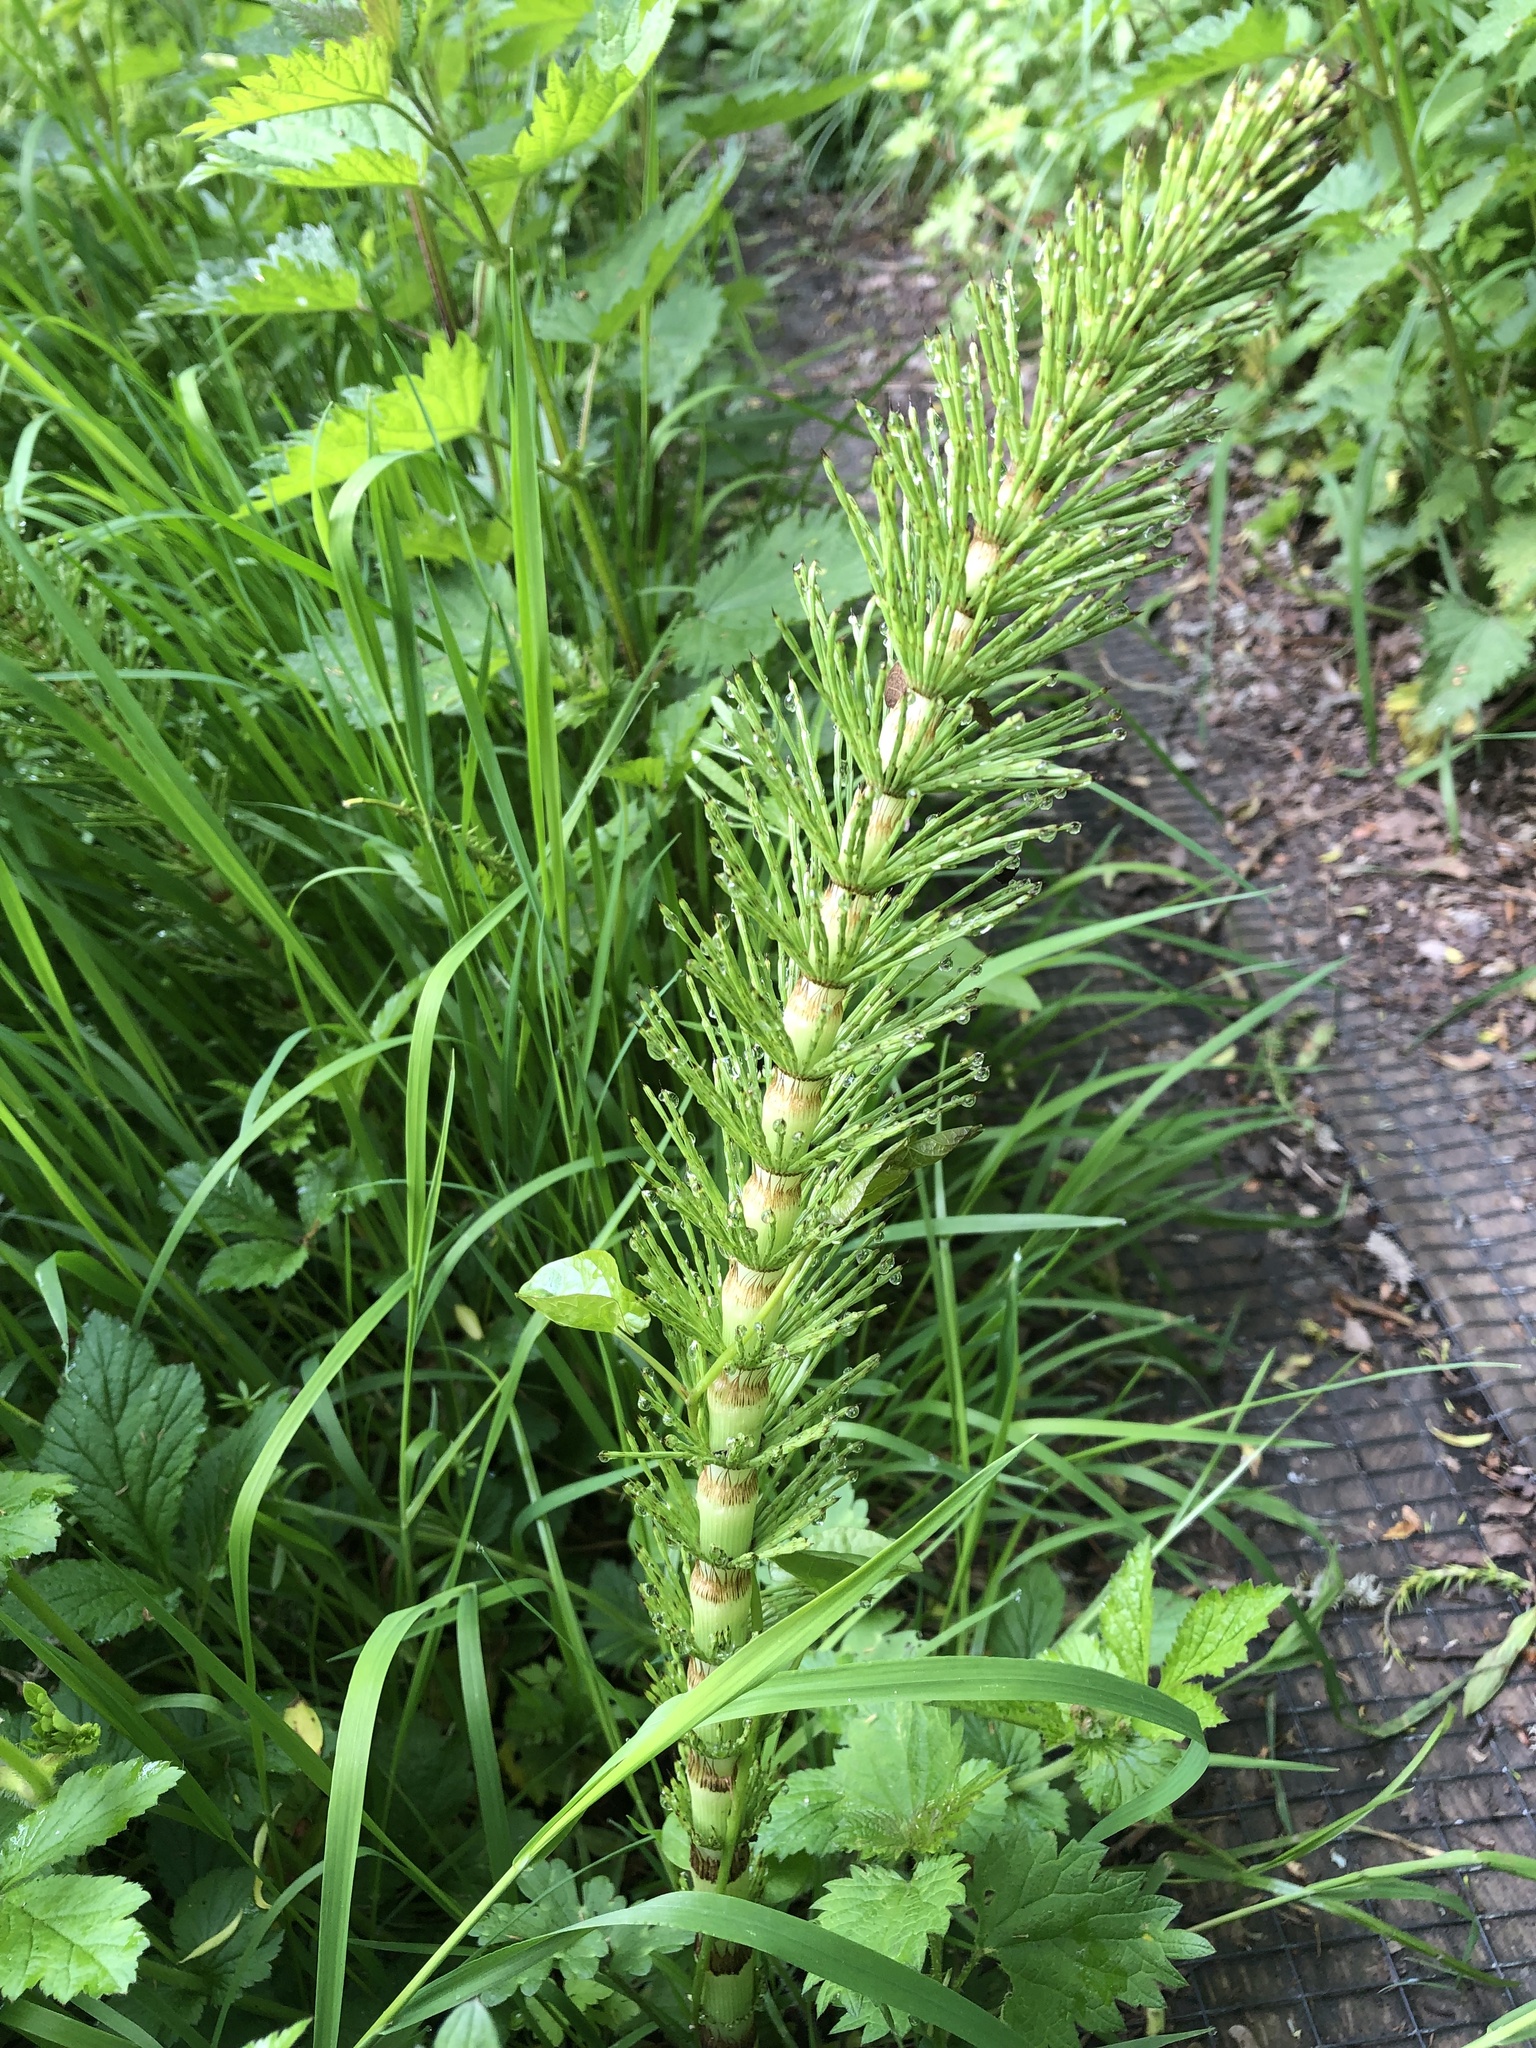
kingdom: Plantae
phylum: Tracheophyta
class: Polypodiopsida
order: Equisetales
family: Equisetaceae
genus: Equisetum
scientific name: Equisetum telmateia
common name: Great horsetail
